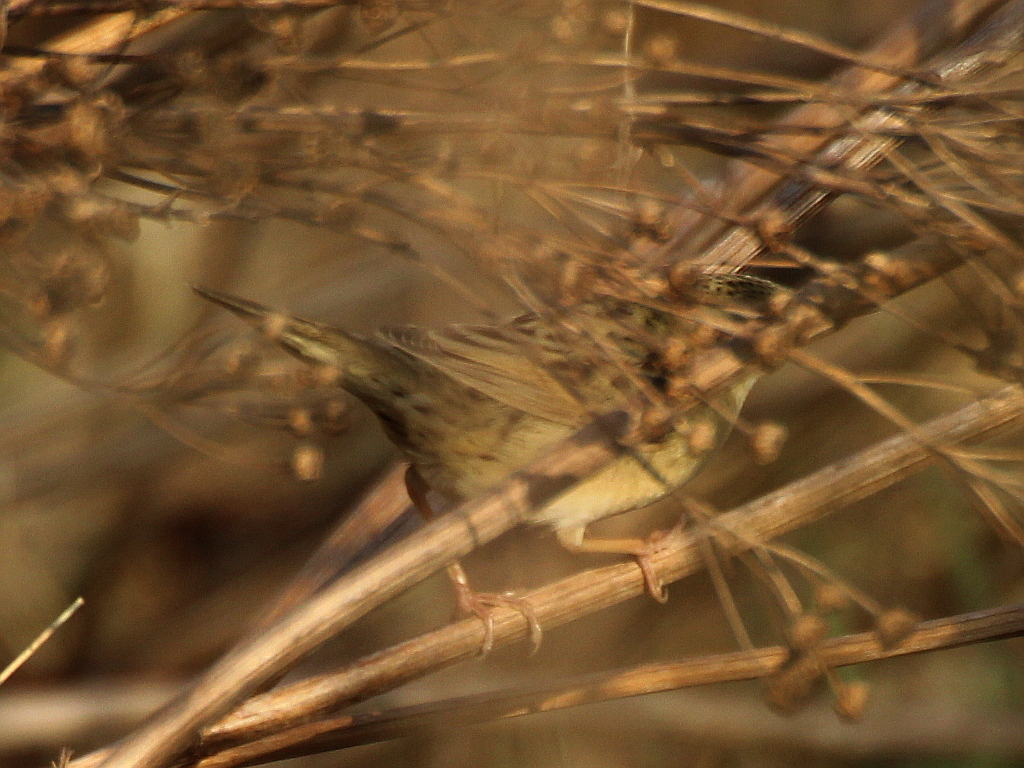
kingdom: Animalia
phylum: Chordata
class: Aves
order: Passeriformes
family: Locustellidae
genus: Locustella
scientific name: Locustella naevia
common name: Common grasshopper warbler
